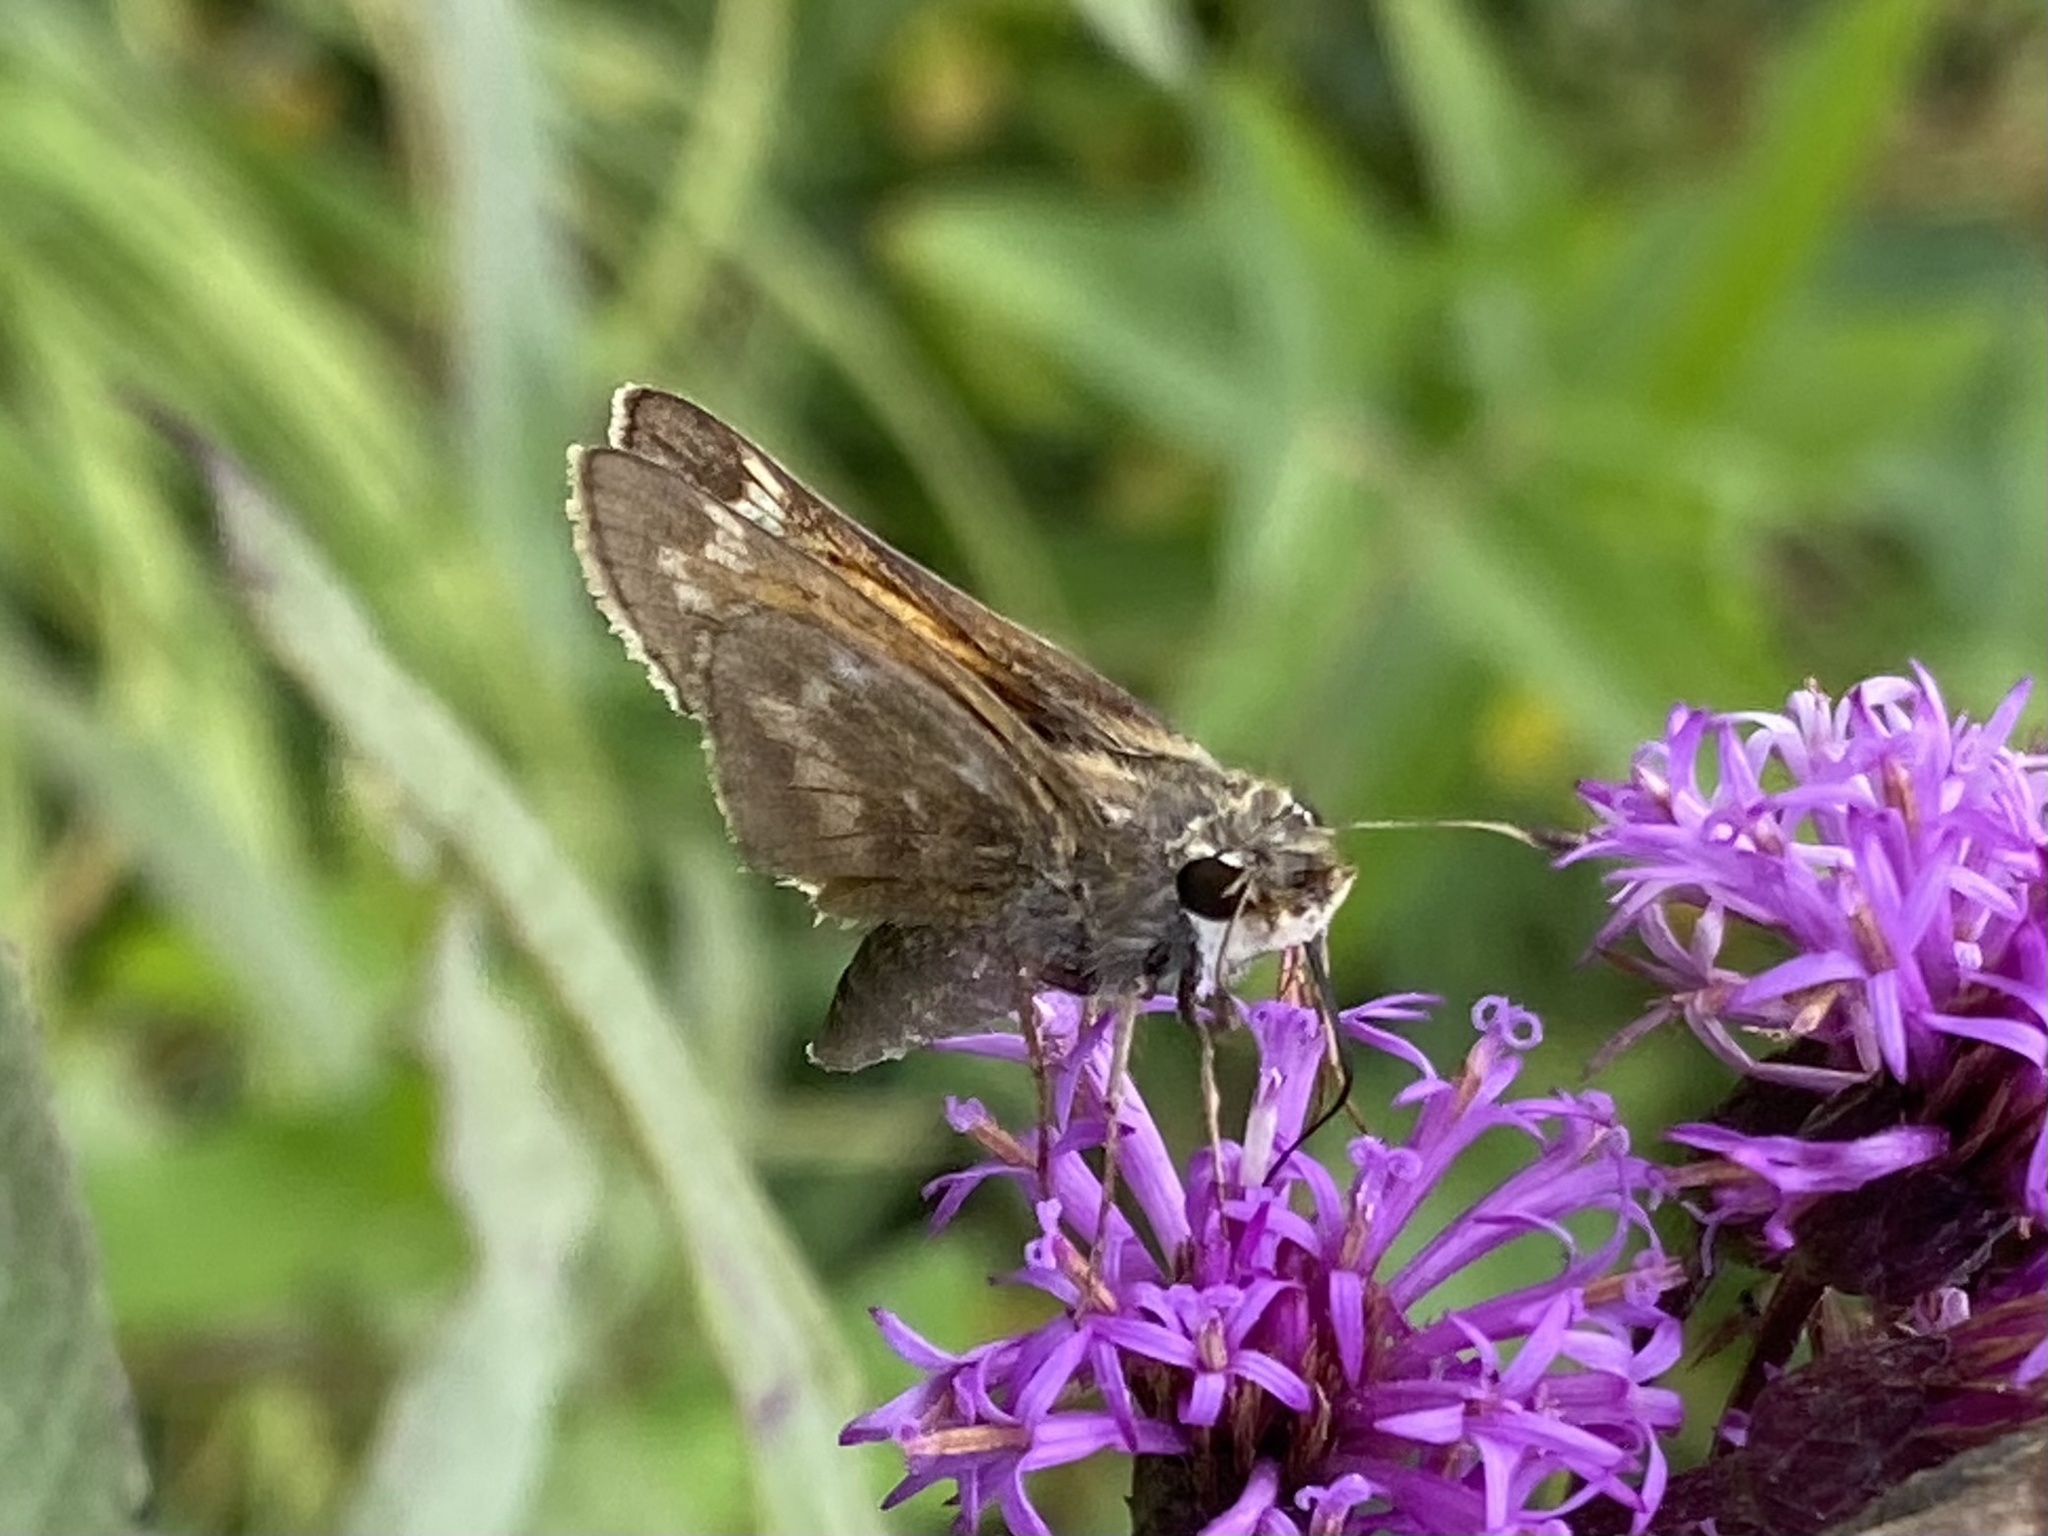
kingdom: Animalia
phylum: Arthropoda
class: Insecta
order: Lepidoptera
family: Hesperiidae
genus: Atalopedes
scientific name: Atalopedes
